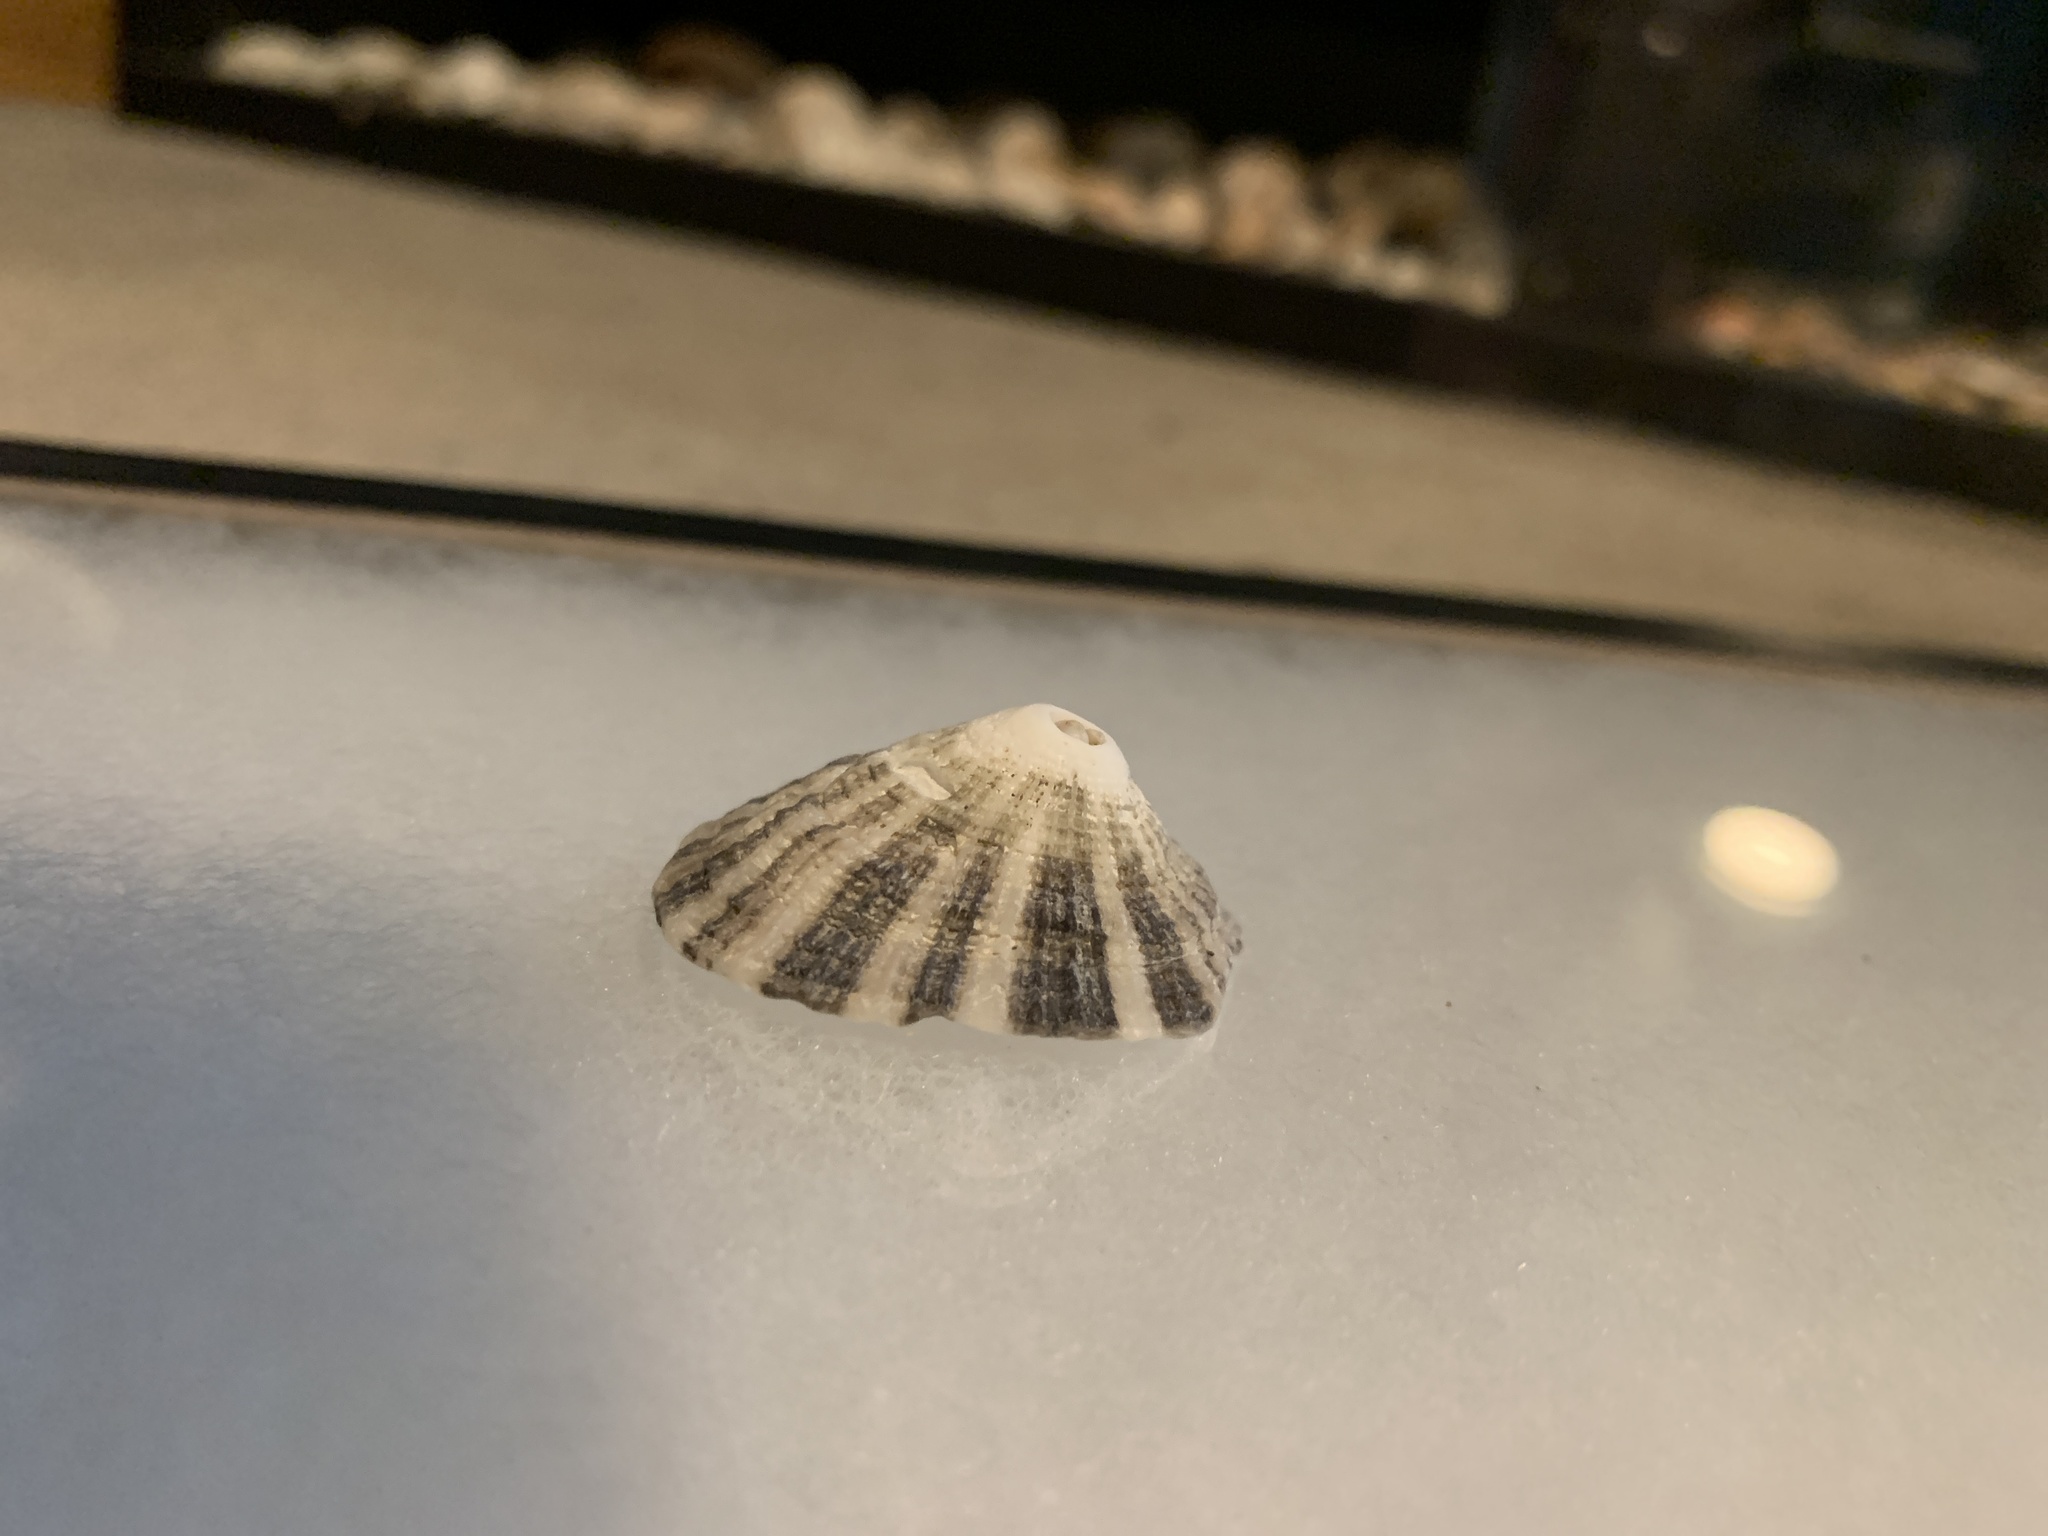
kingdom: Animalia
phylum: Mollusca
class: Gastropoda
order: Lepetellida
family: Fissurellidae
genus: Diodora
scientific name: Diodora aspera
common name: Rough keyhole limpet
